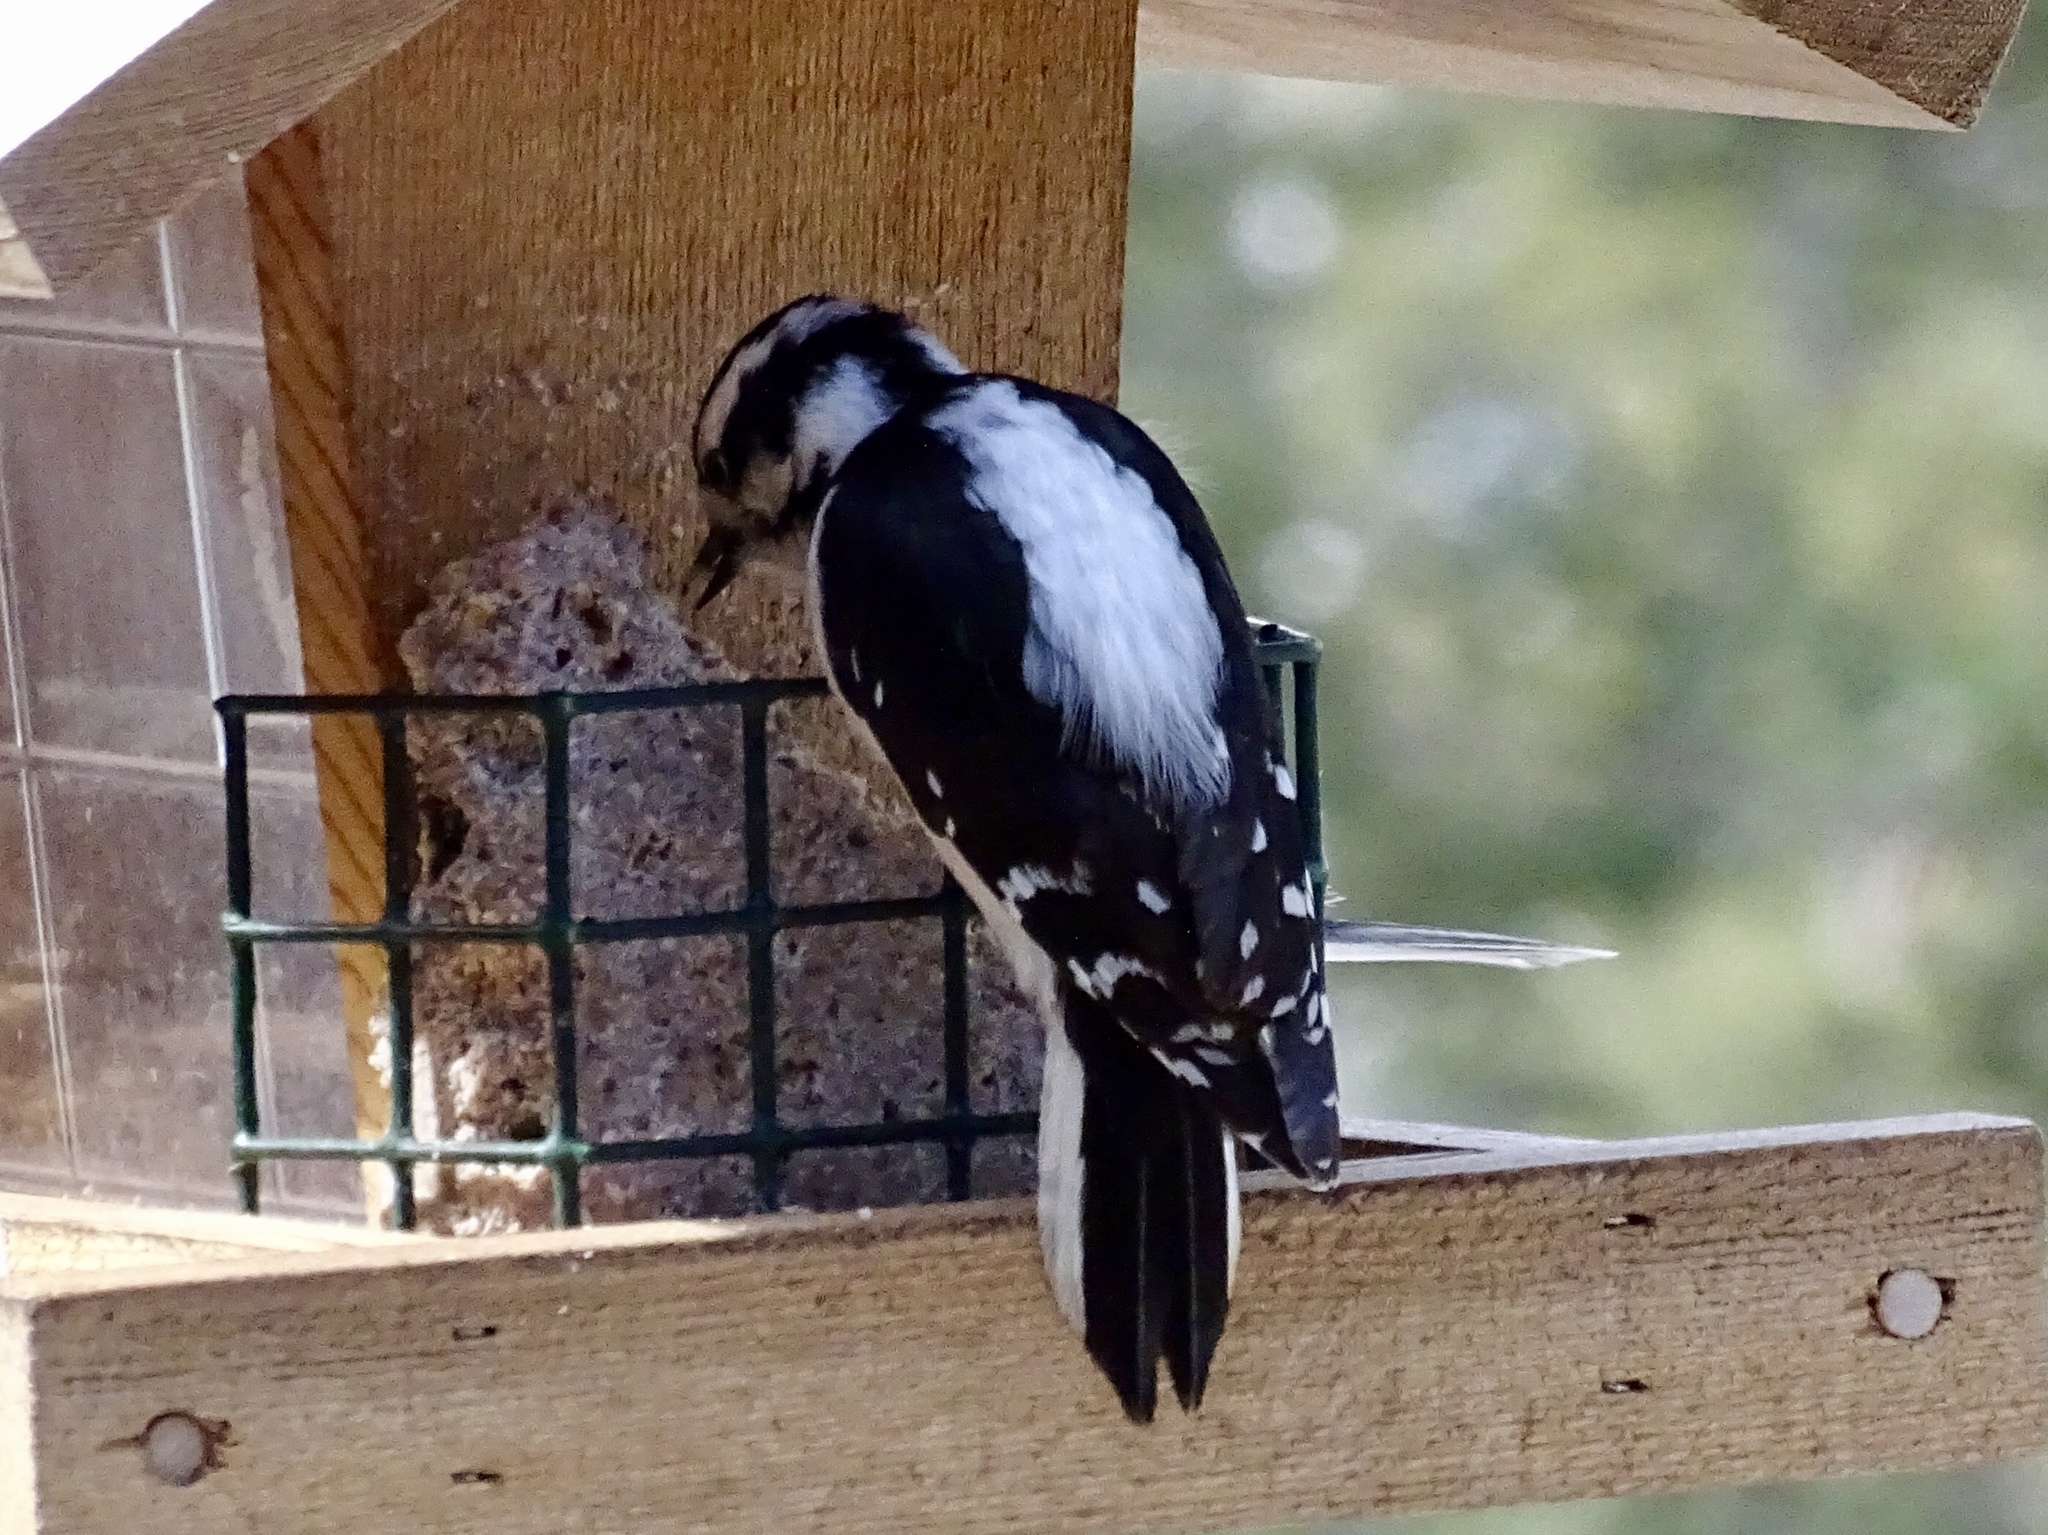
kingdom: Animalia
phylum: Chordata
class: Aves
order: Piciformes
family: Picidae
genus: Dryobates
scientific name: Dryobates pubescens
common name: Downy woodpecker
